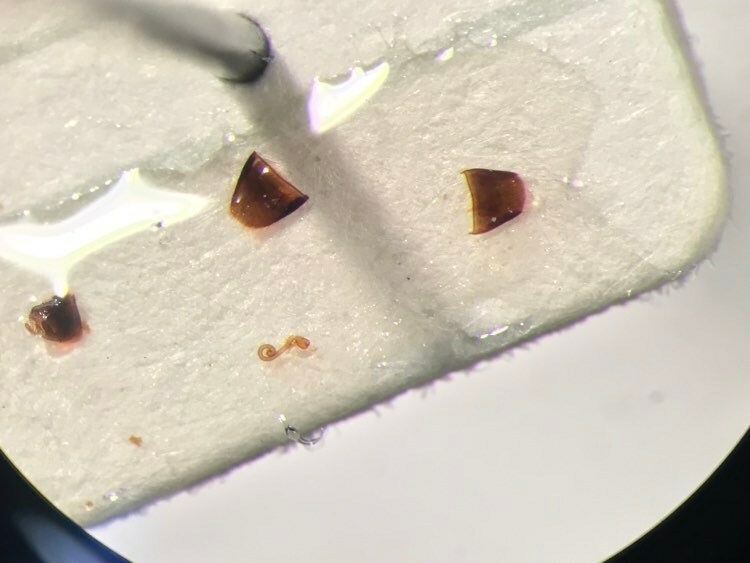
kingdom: Animalia
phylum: Arthropoda
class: Insecta
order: Coleoptera
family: Staphylinidae
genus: Dinaraea
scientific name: Dinaraea bicornis
